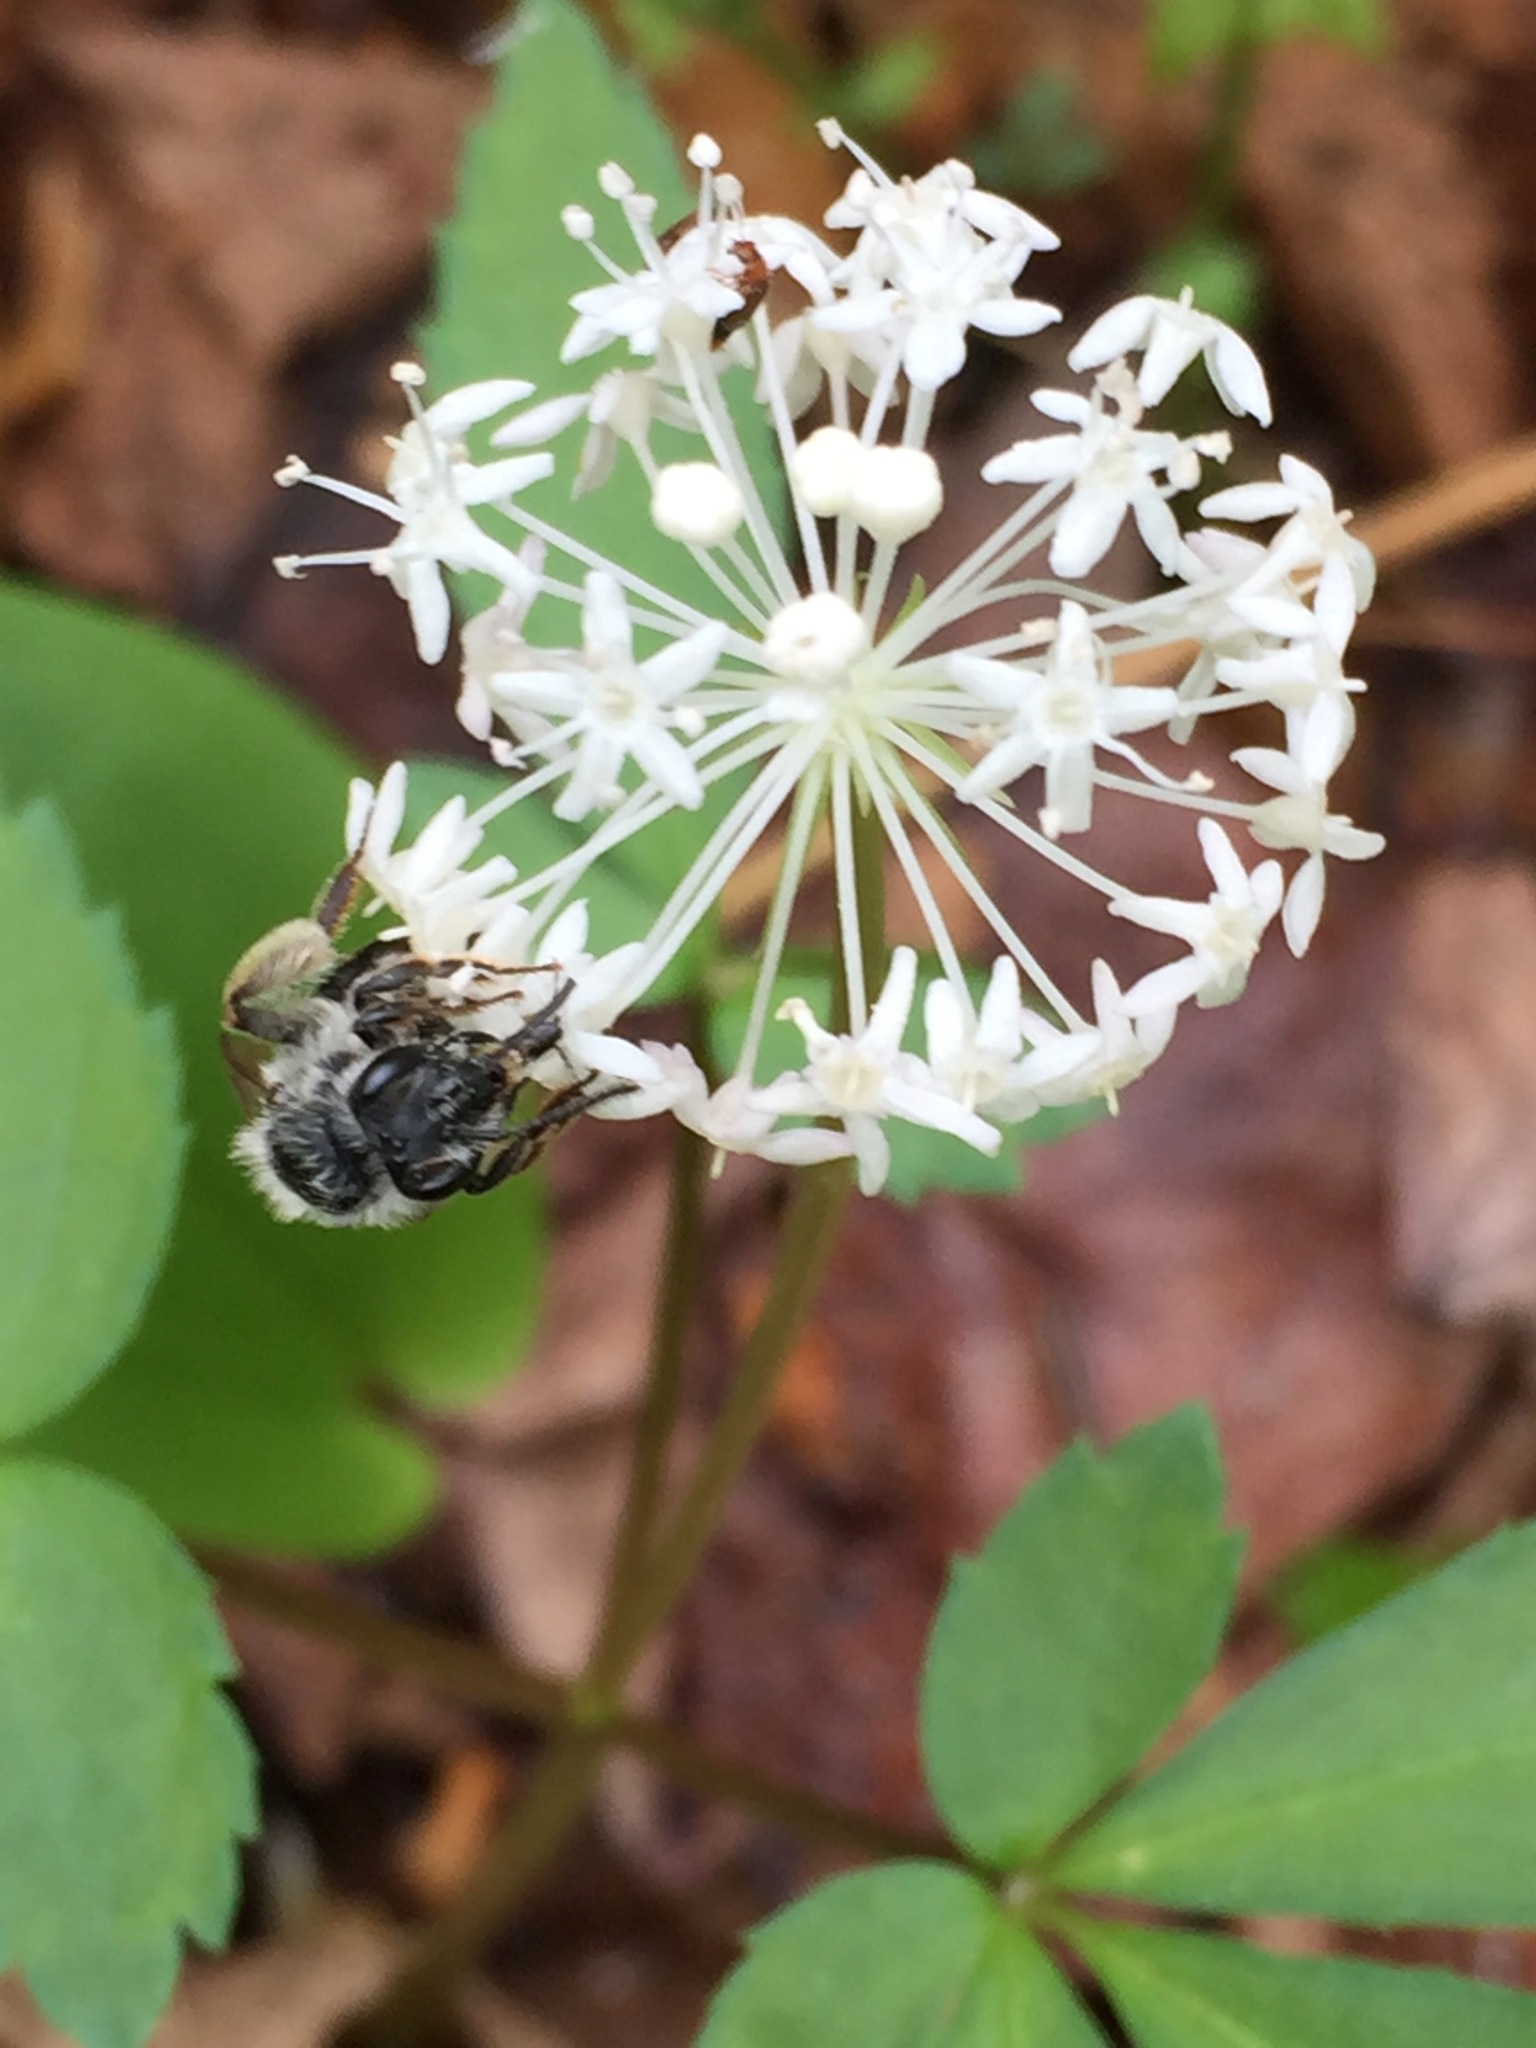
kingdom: Plantae
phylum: Tracheophyta
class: Magnoliopsida
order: Apiales
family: Araliaceae
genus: Panax
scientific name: Panax trifolius
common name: Dwarf ginseng
